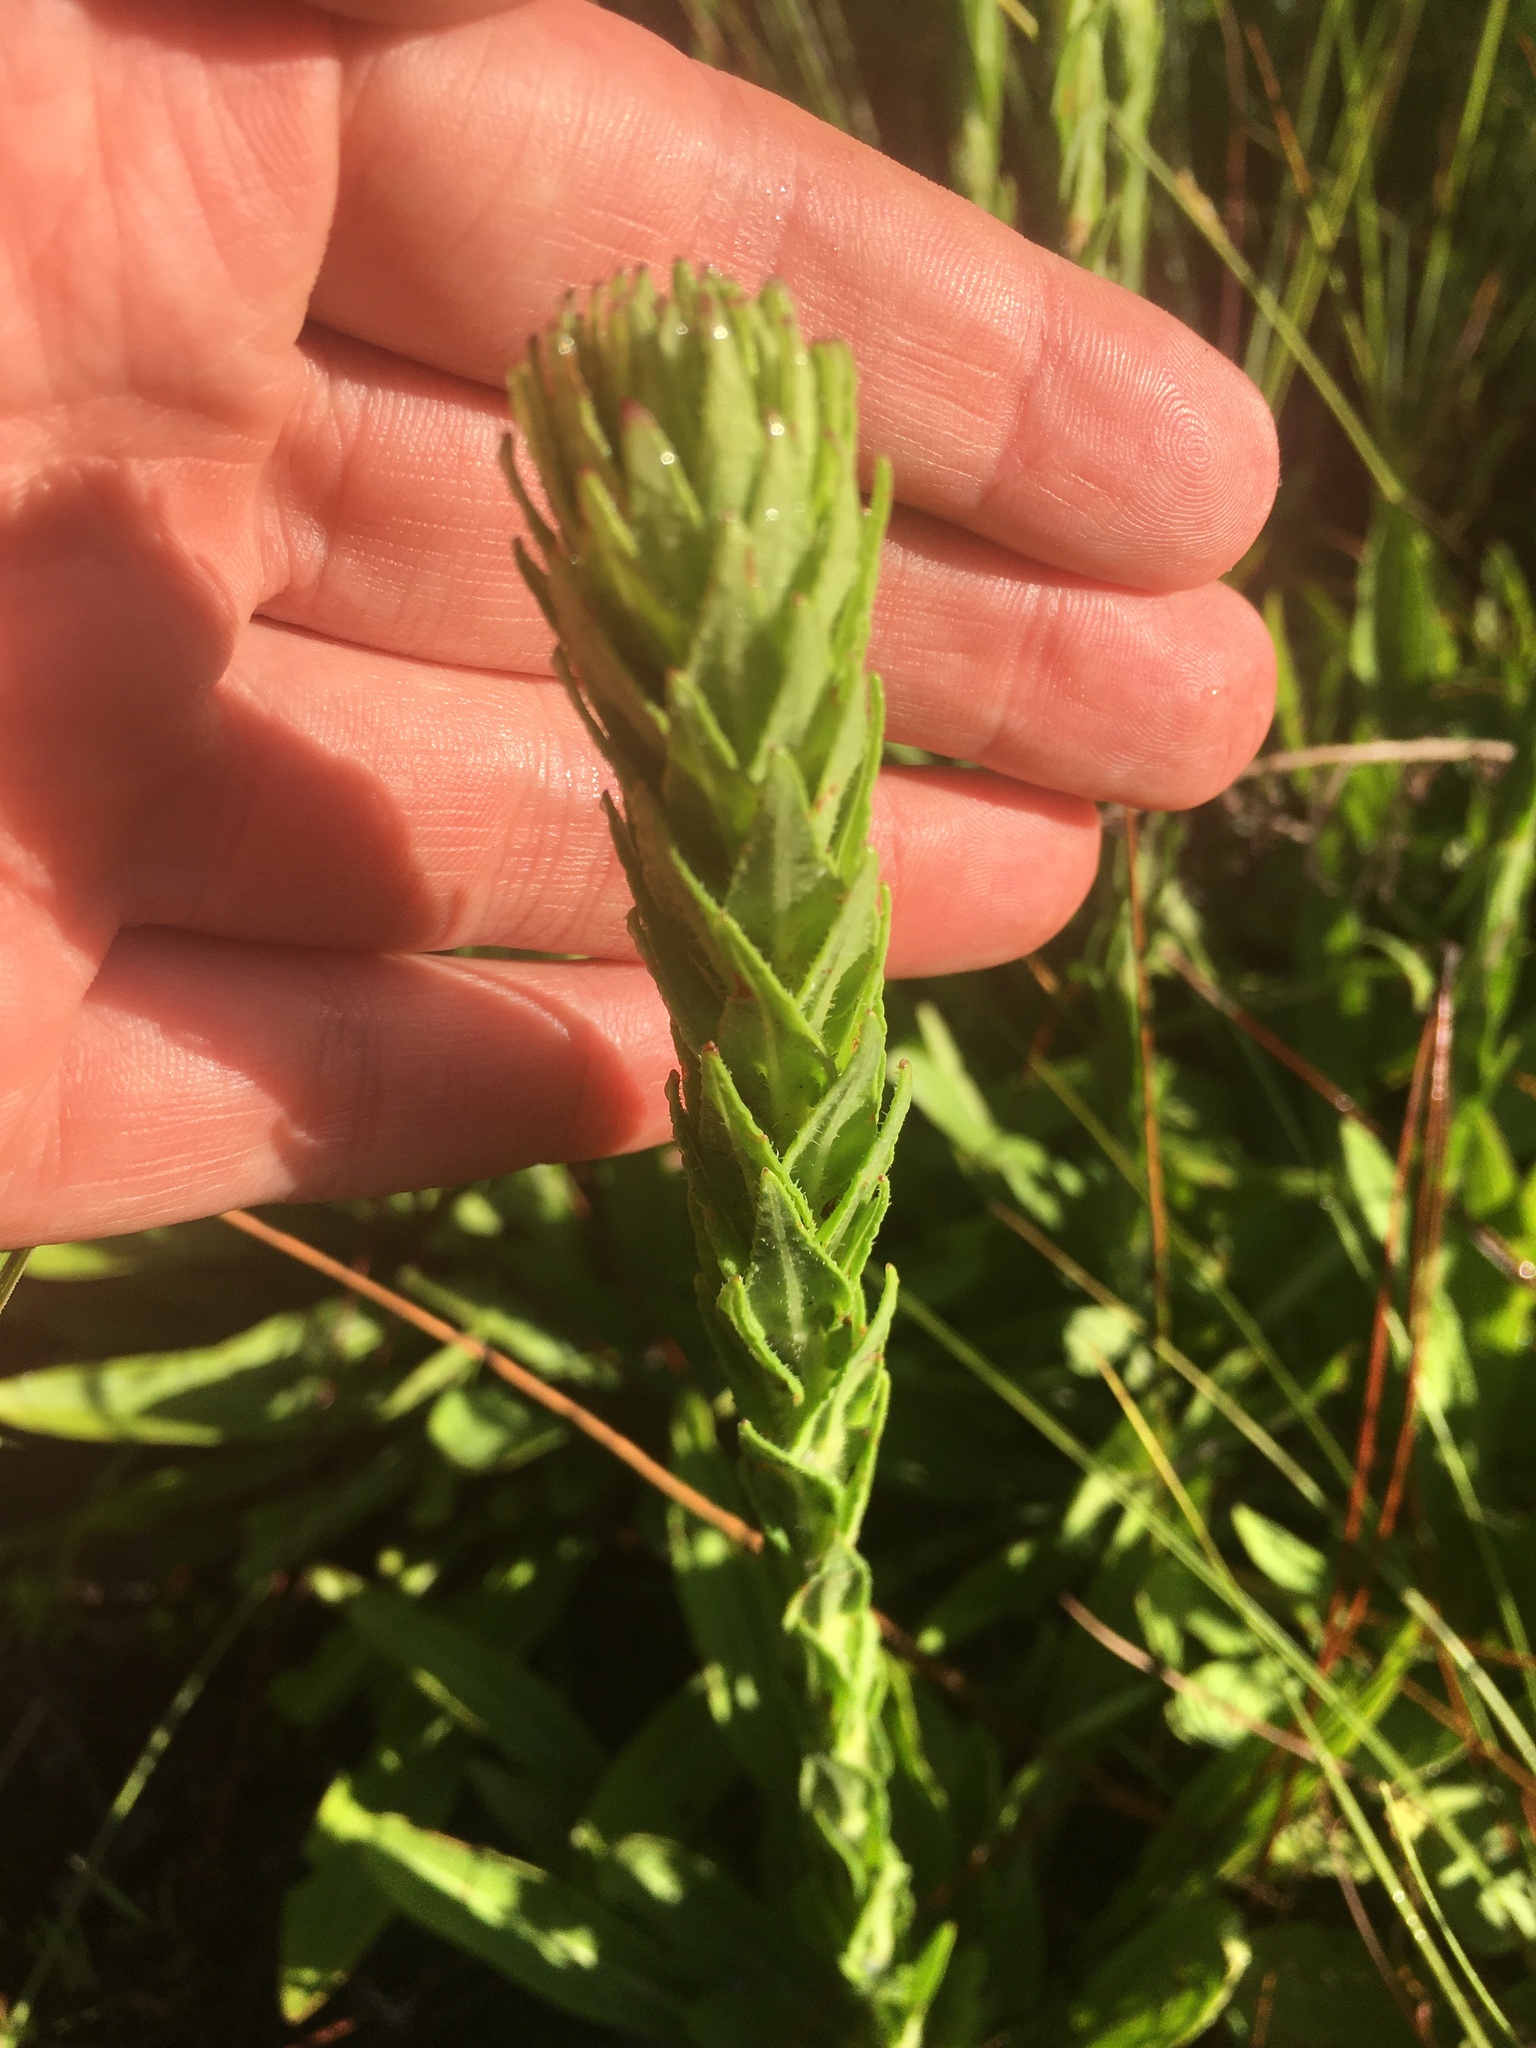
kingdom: Plantae
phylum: Tracheophyta
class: Magnoliopsida
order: Asterales
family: Asteraceae
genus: Carphephorus
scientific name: Carphephorus paniculatus
